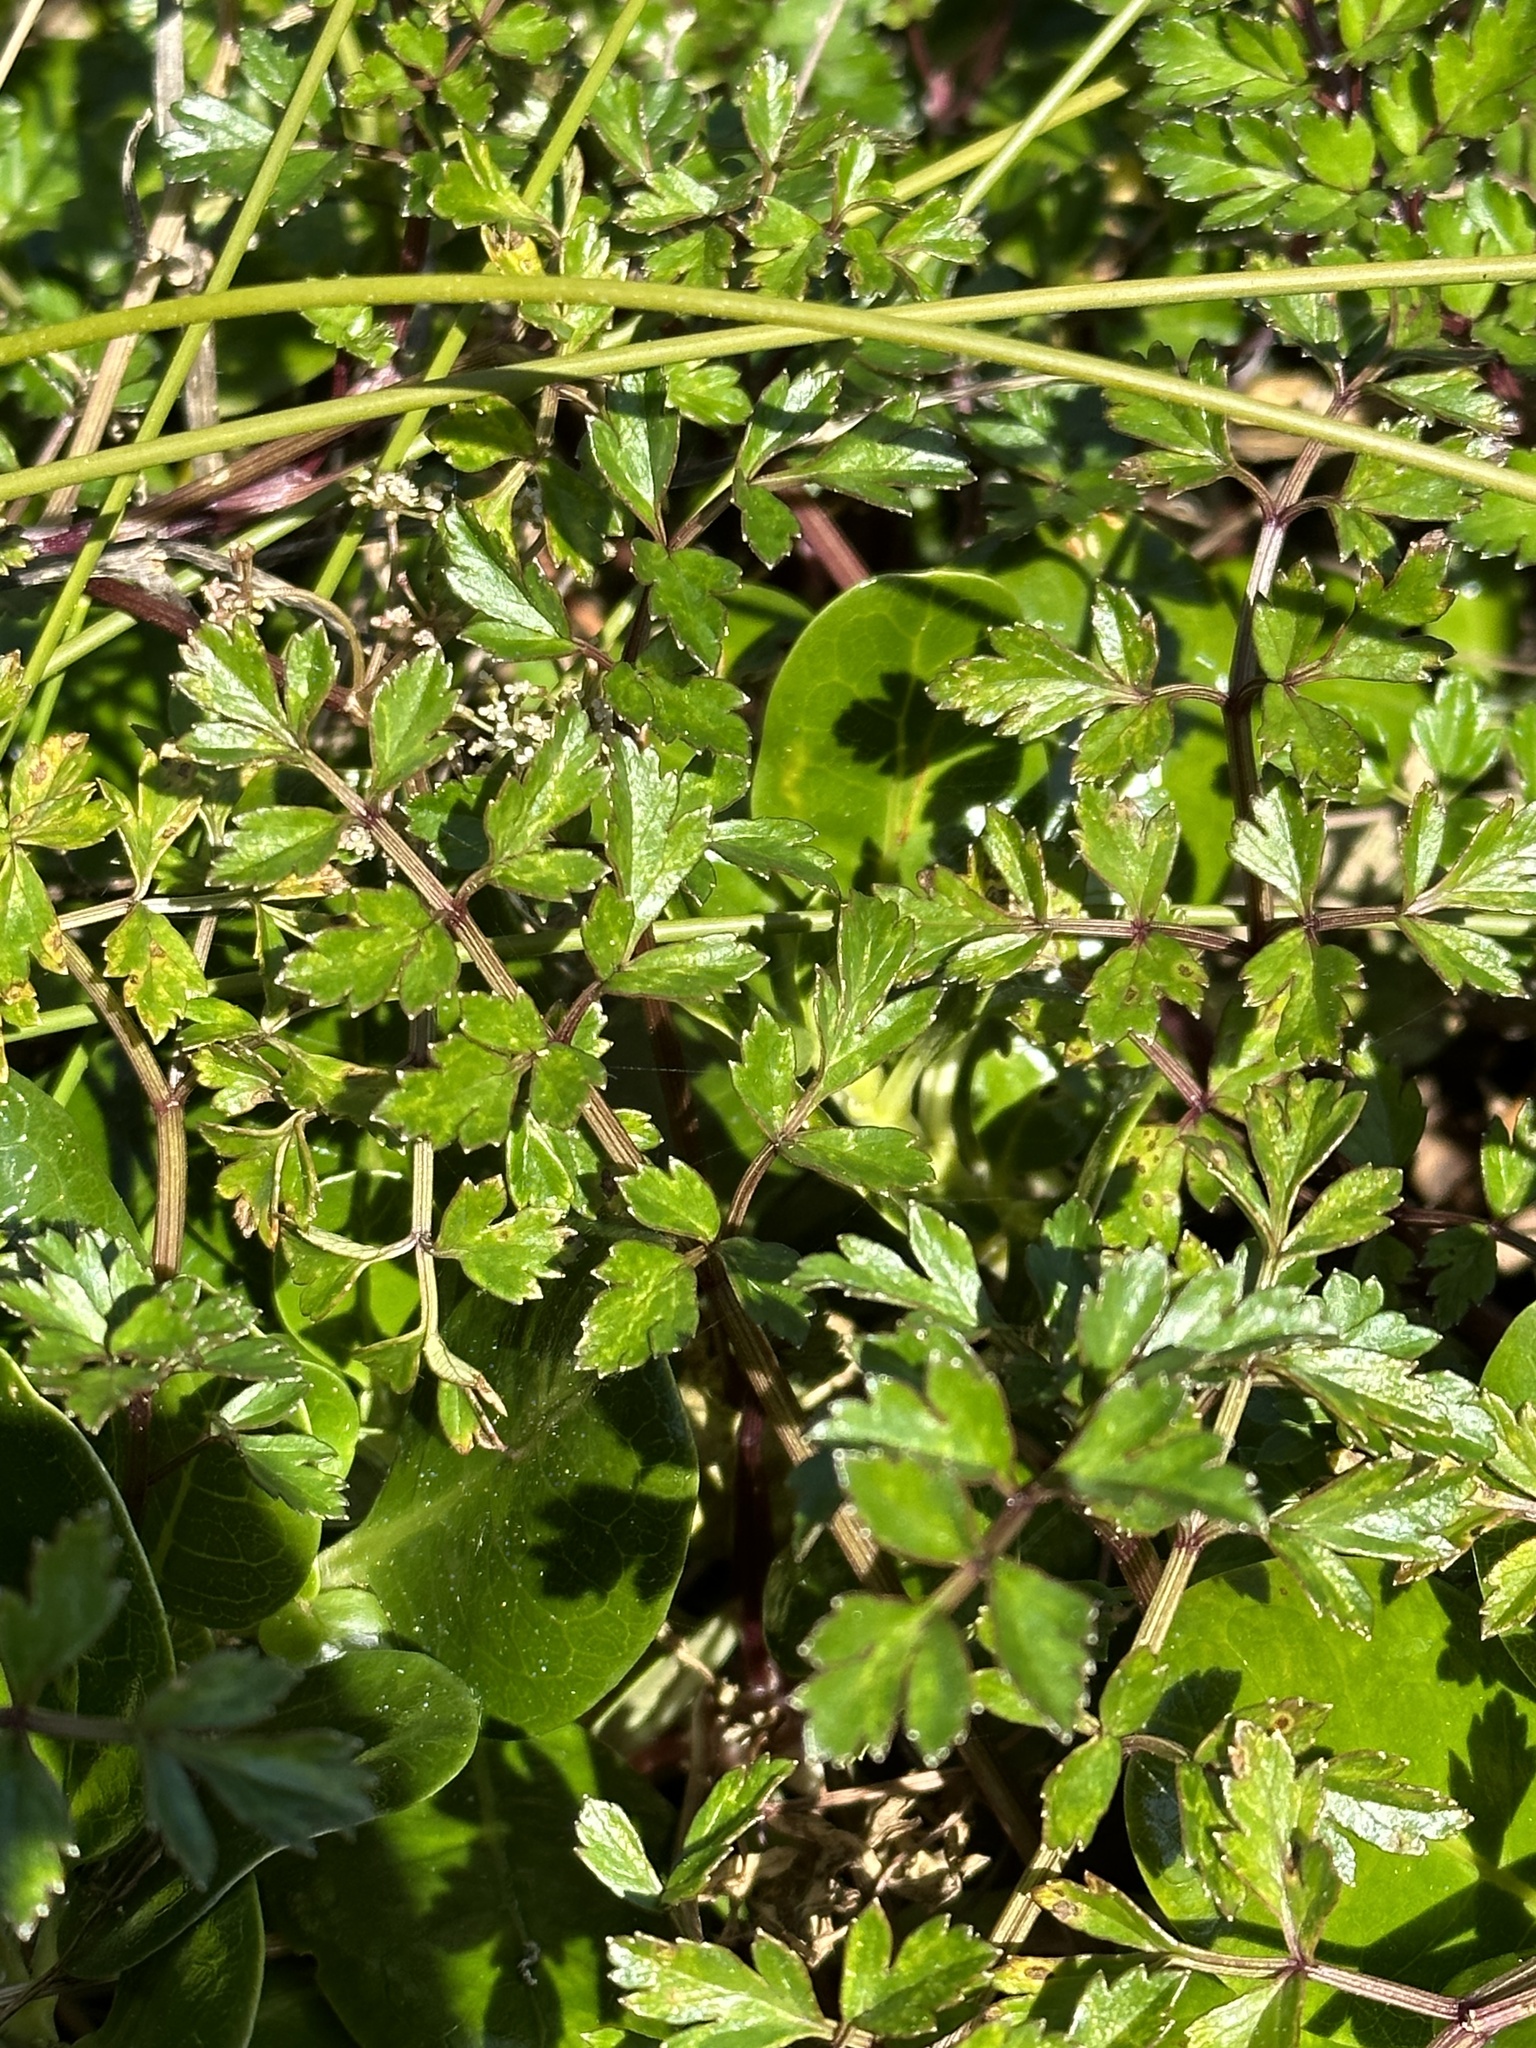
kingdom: Plantae
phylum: Tracheophyta
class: Magnoliopsida
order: Apiales
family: Apiaceae
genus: Apium
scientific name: Apium prostratum
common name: Prostrate marshwort
